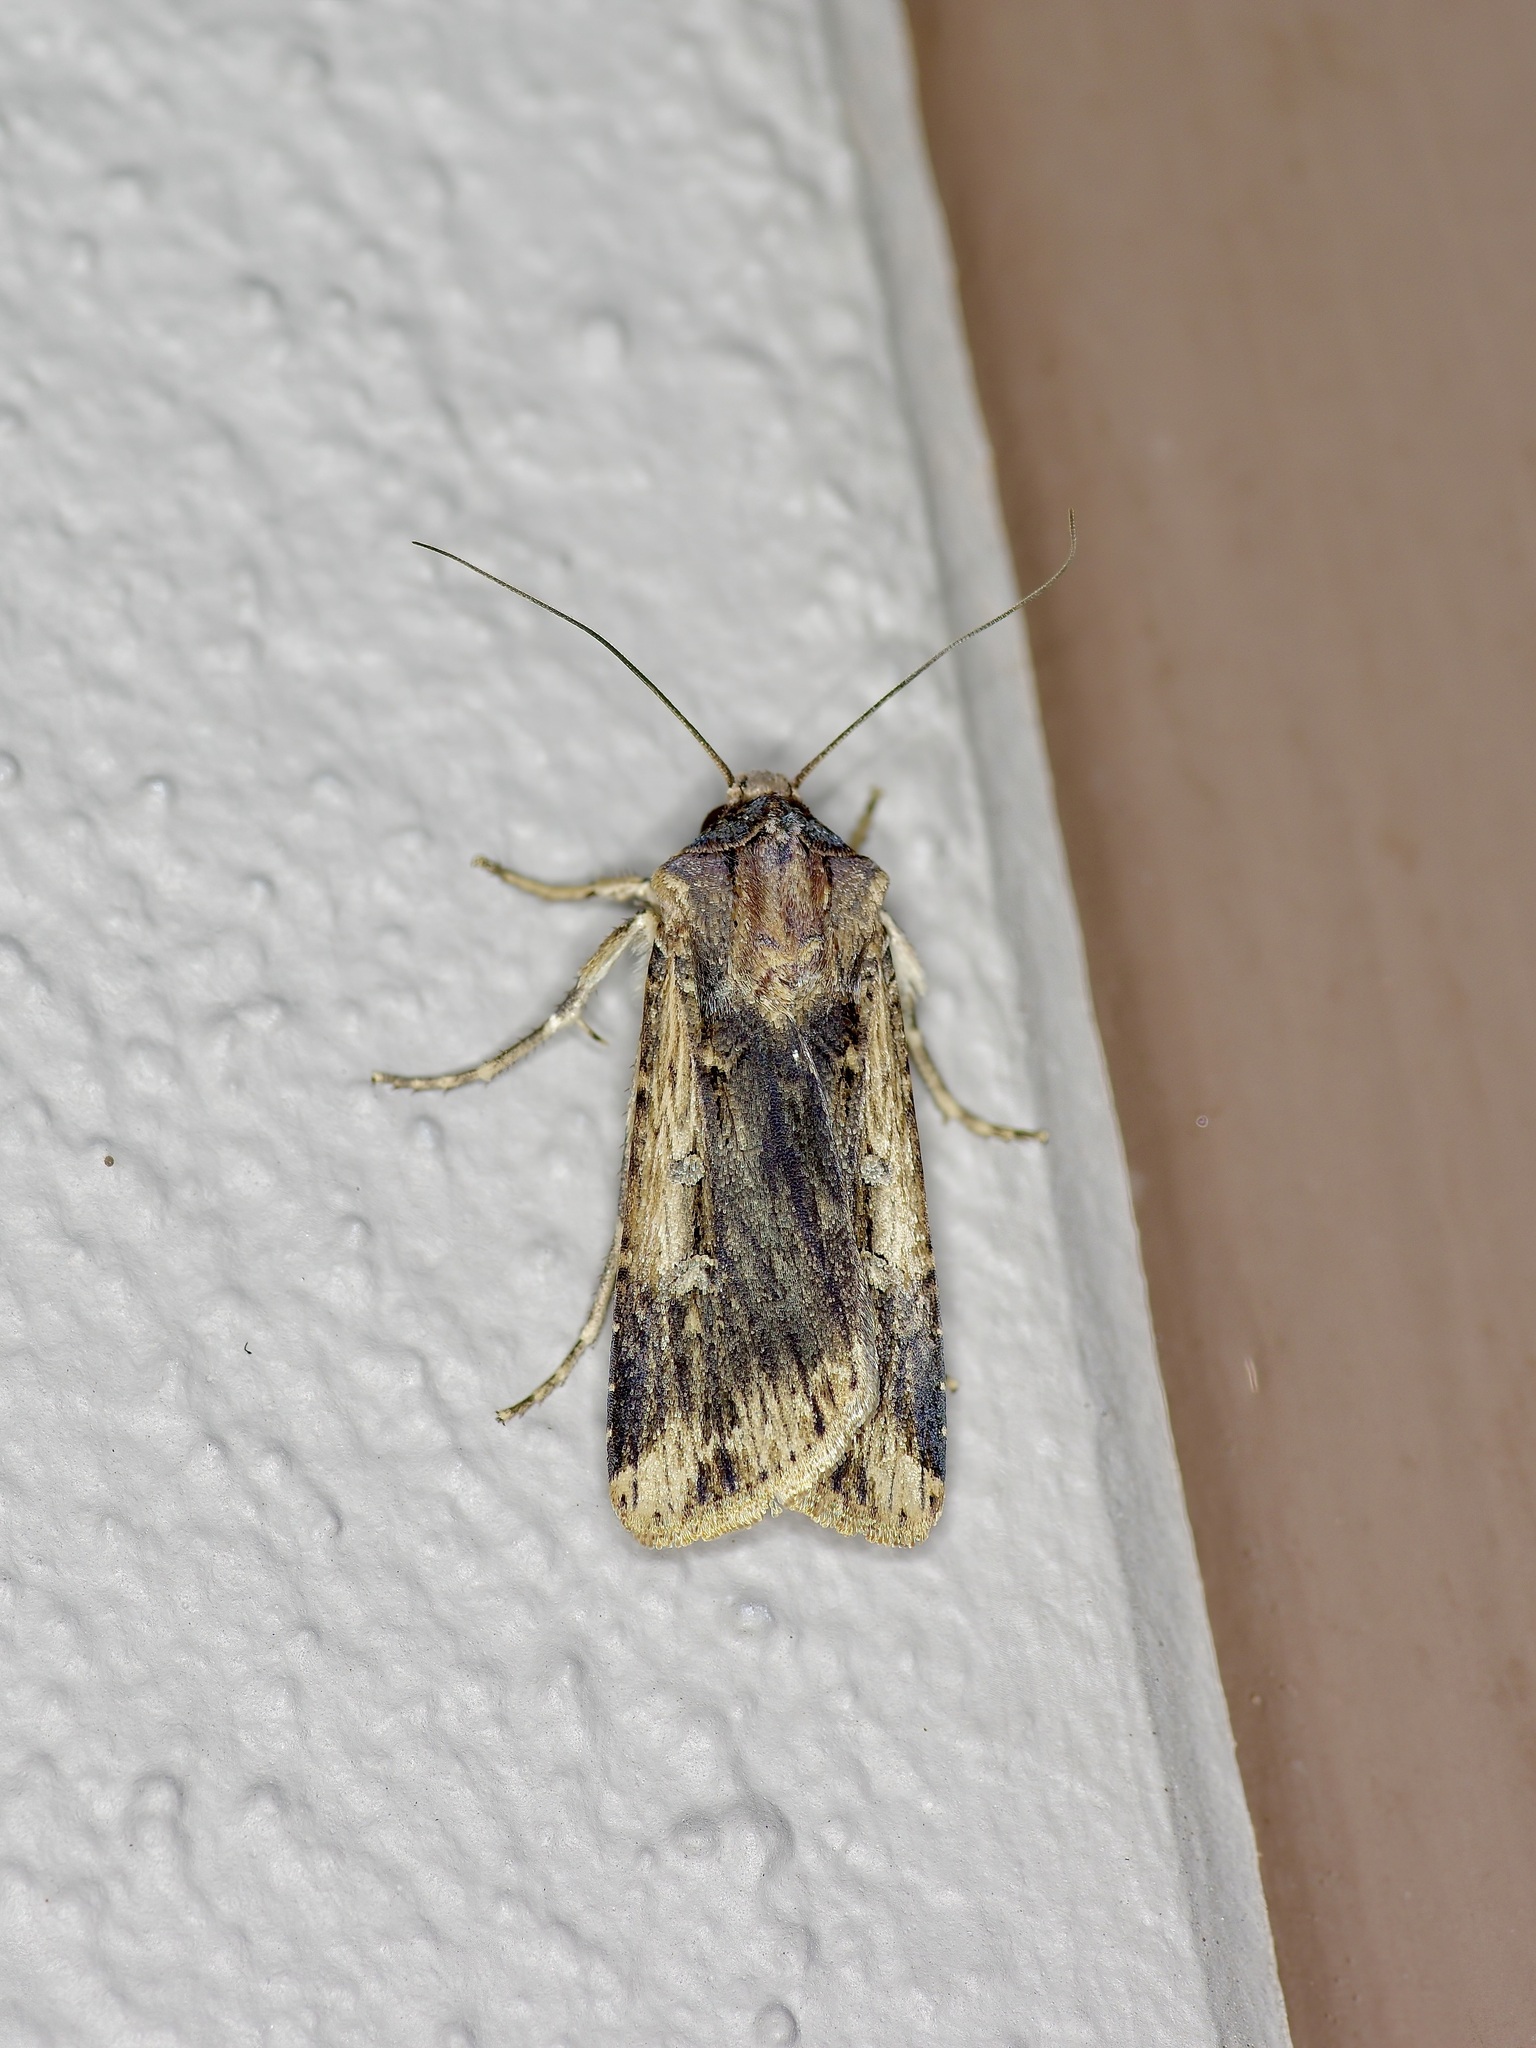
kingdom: Animalia
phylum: Arthropoda
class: Insecta
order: Lepidoptera
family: Noctuidae
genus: Feltia
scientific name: Feltia subterranea
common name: Granulate cutworm
